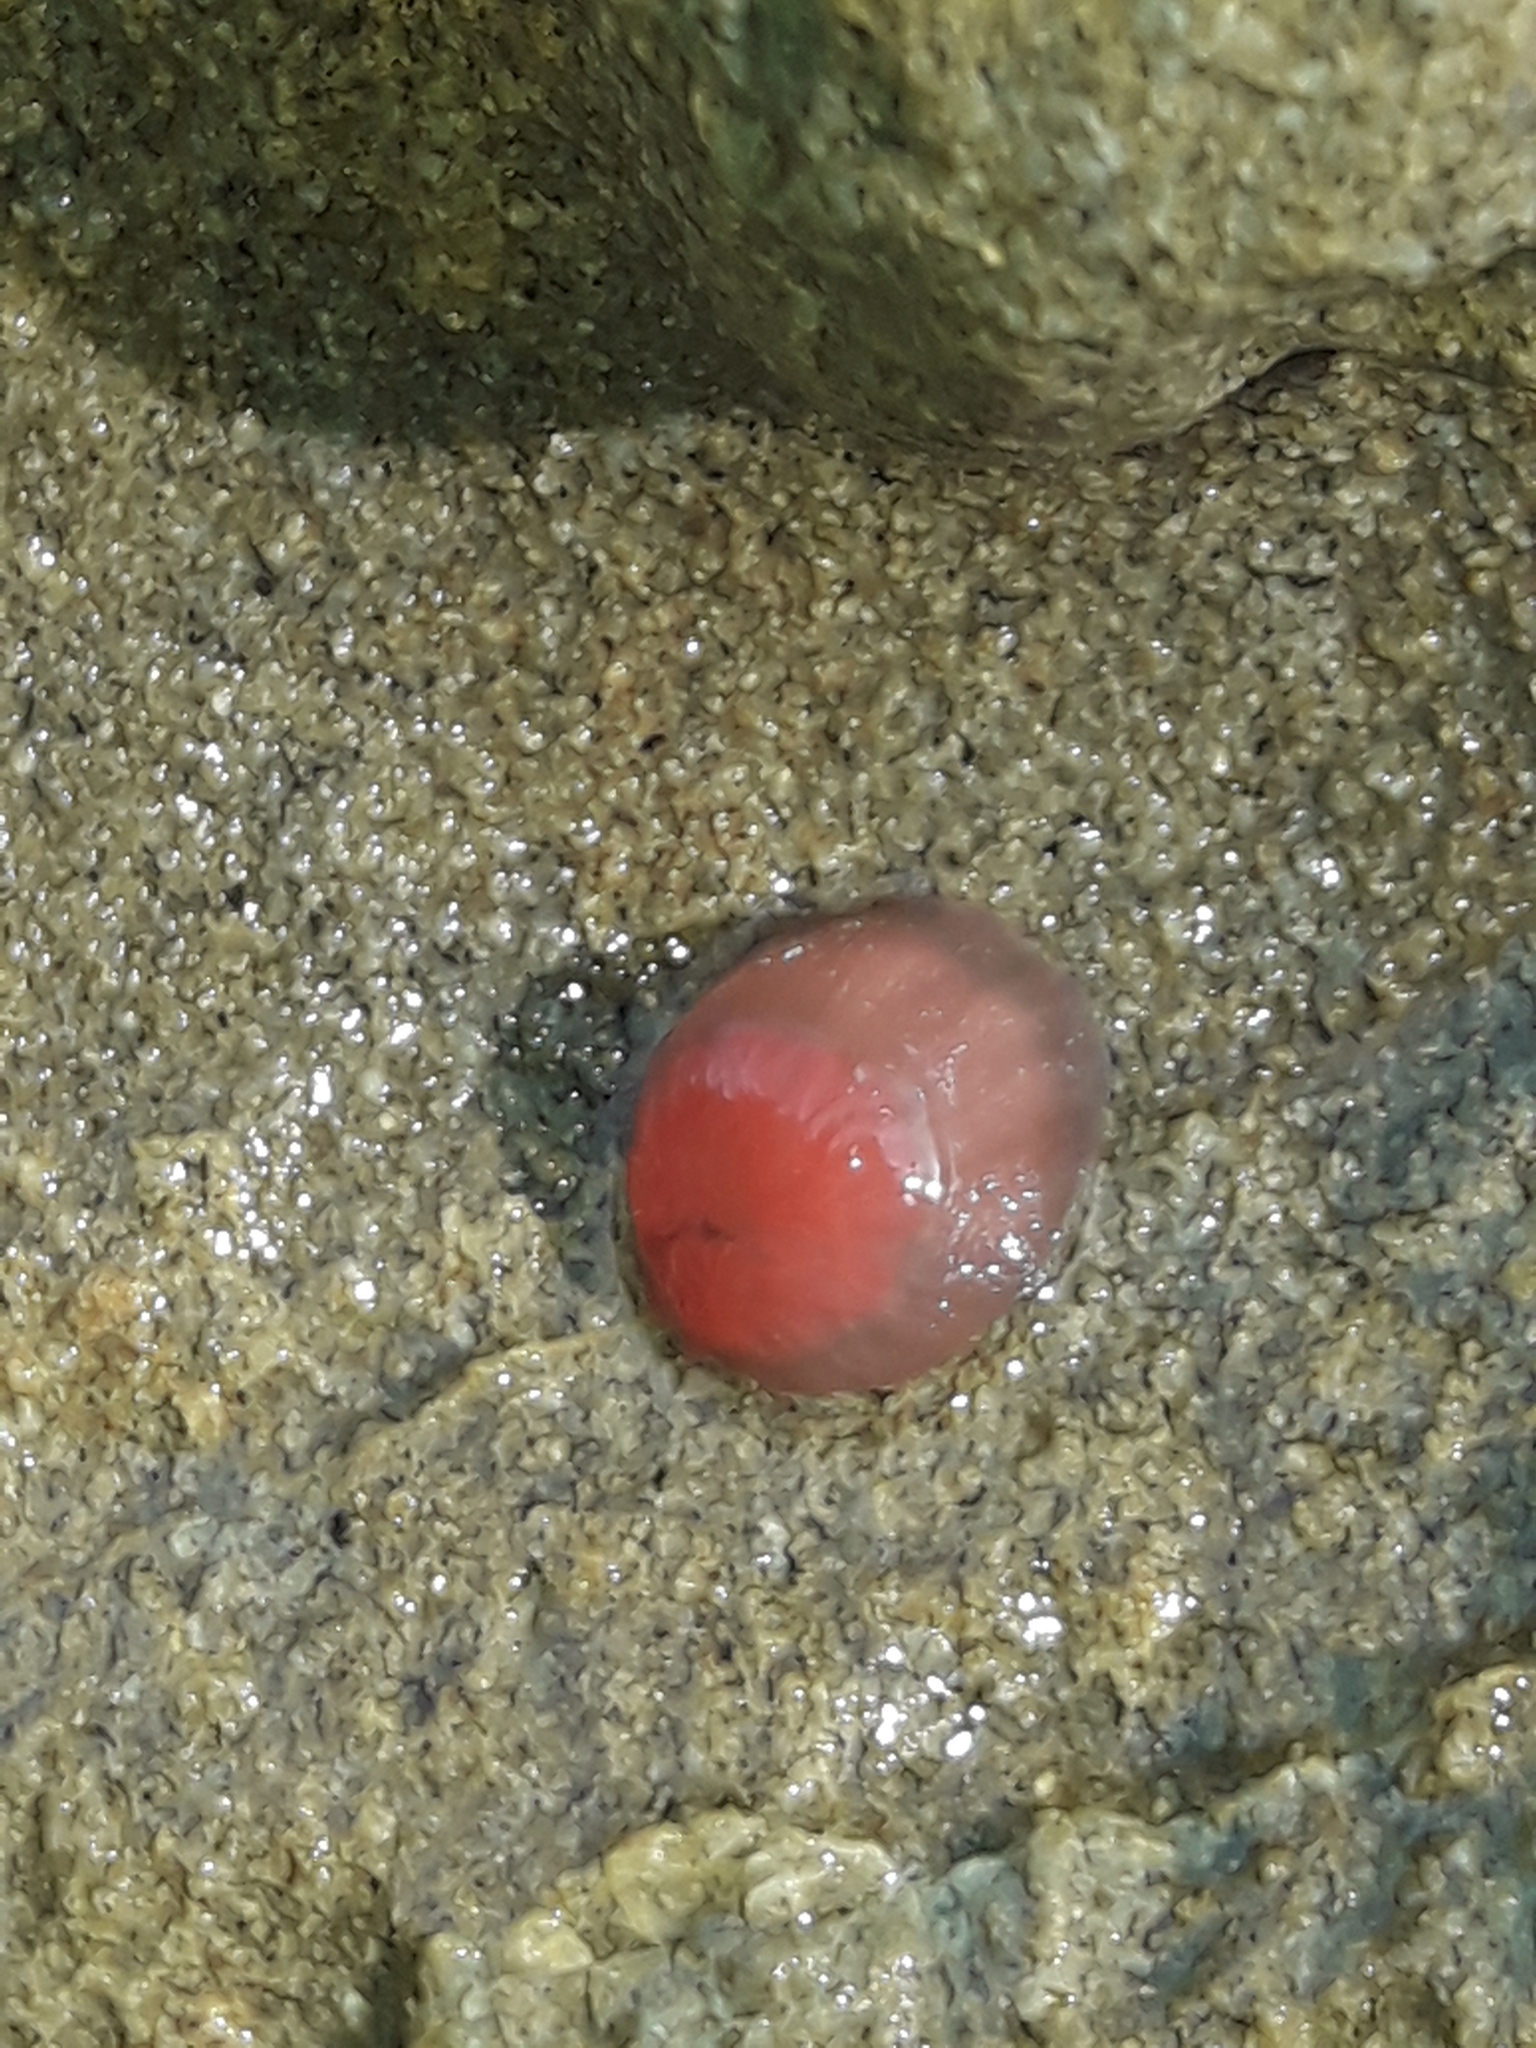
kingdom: Animalia
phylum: Cnidaria
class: Anthozoa
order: Actiniaria
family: Actiniidae
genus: Actinia
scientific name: Actinia tenebrosa
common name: Waratah anemone
